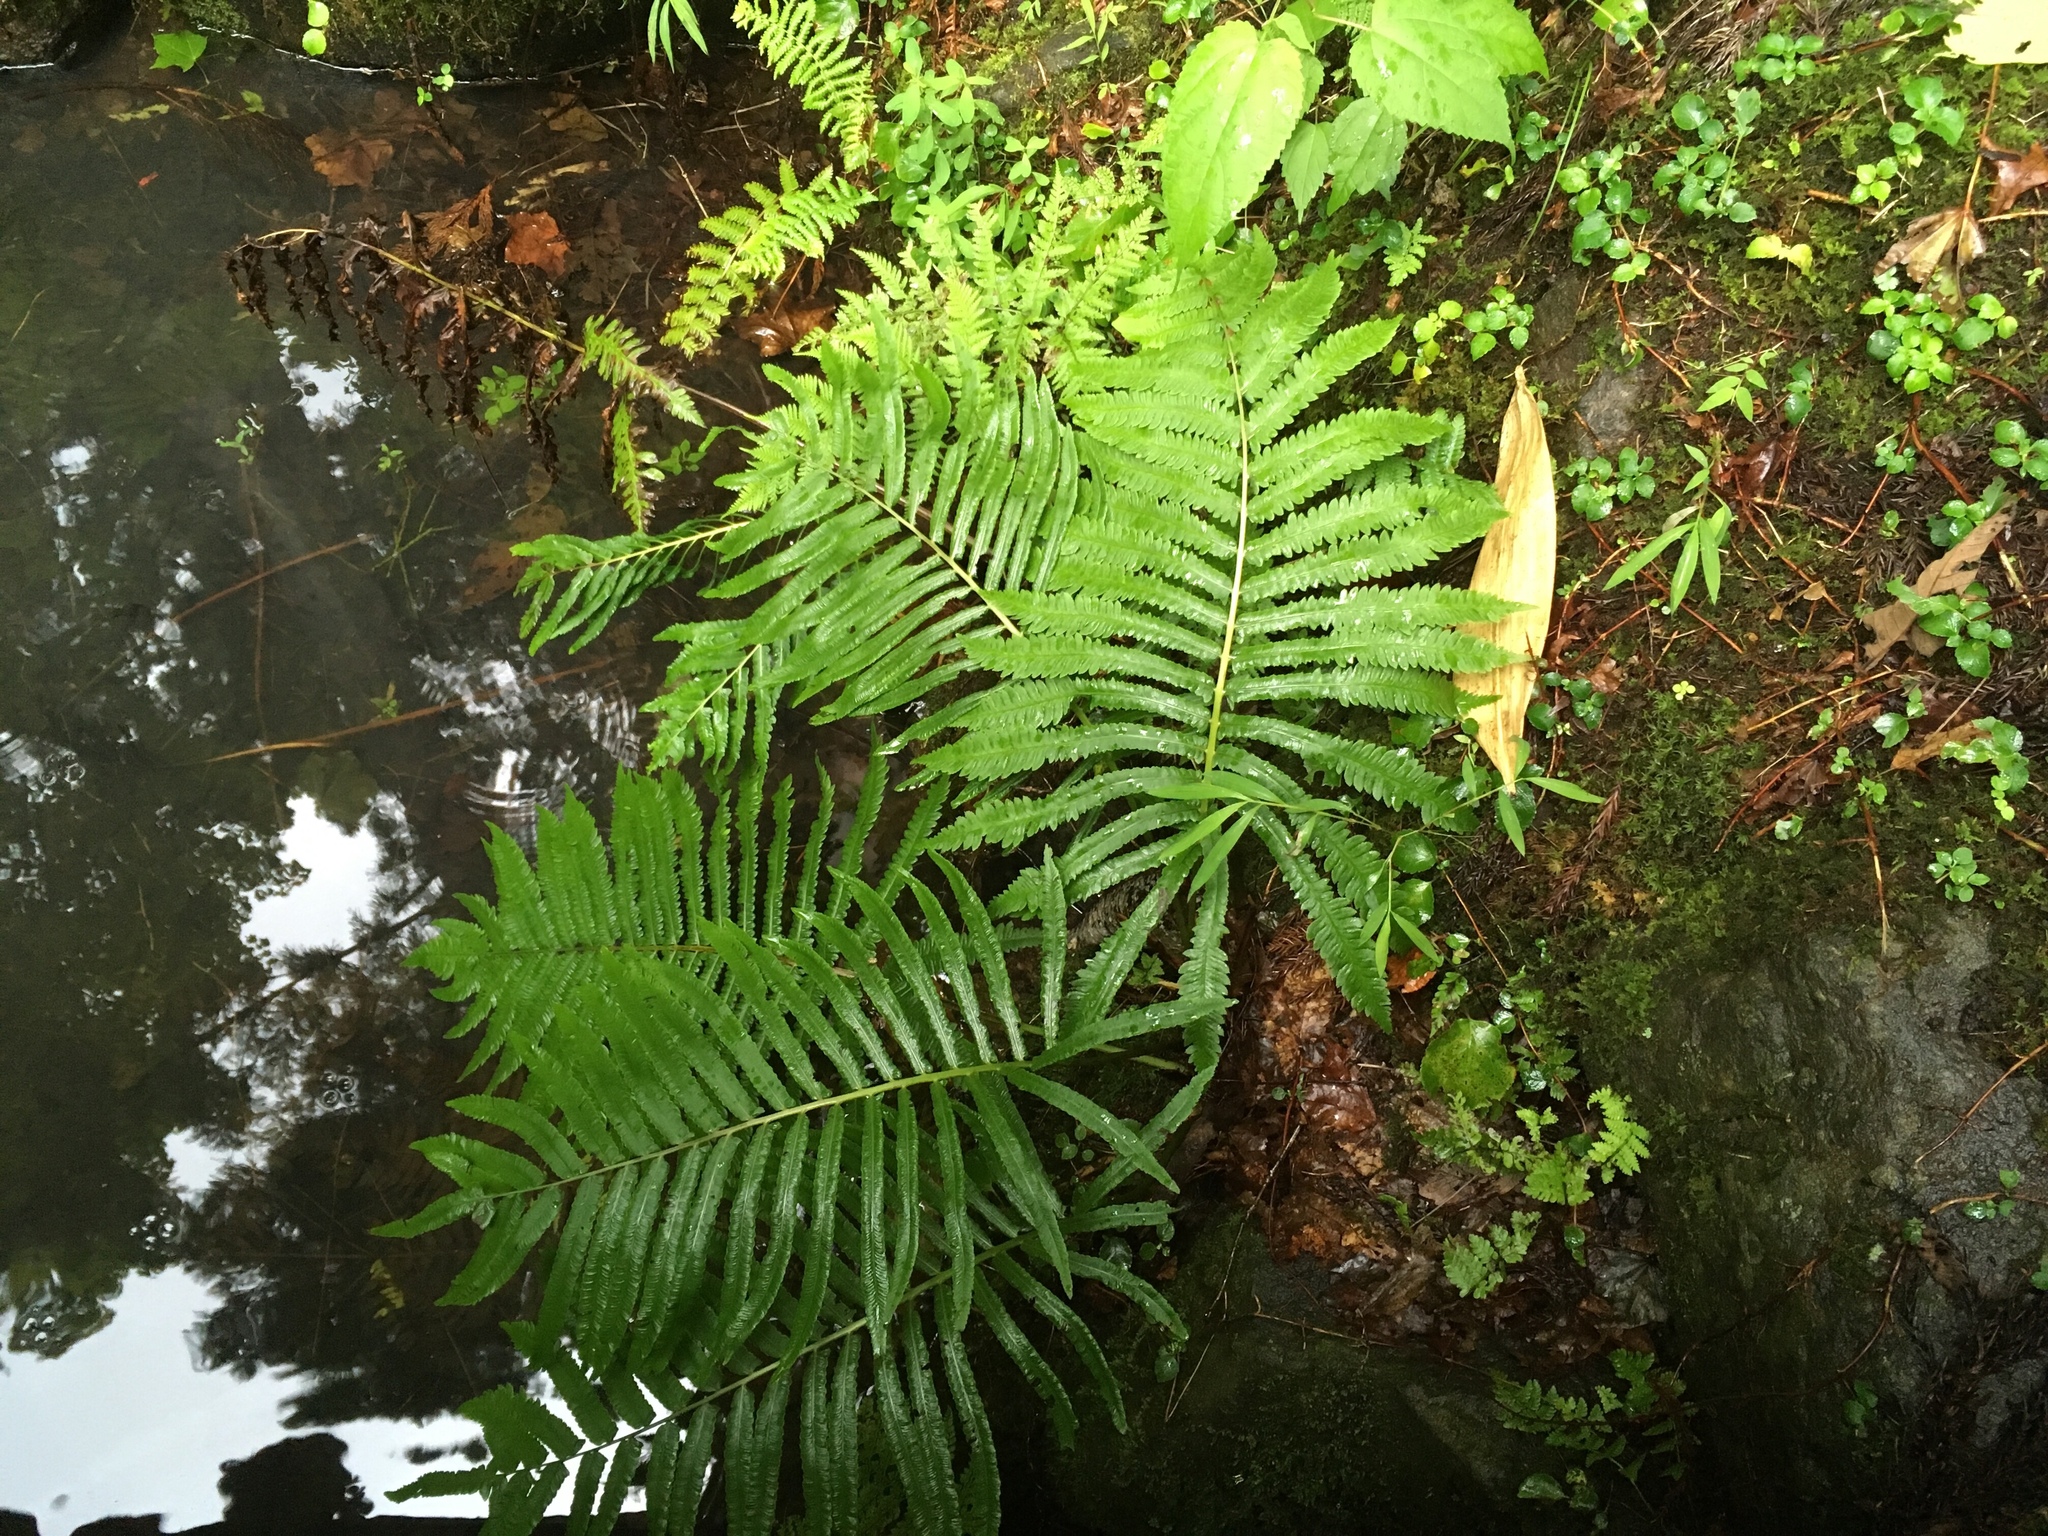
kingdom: Plantae
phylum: Tracheophyta
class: Polypodiopsida
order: Polypodiales
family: Onocleaceae
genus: Pentarhizidium
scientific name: Pentarhizidium orientale
